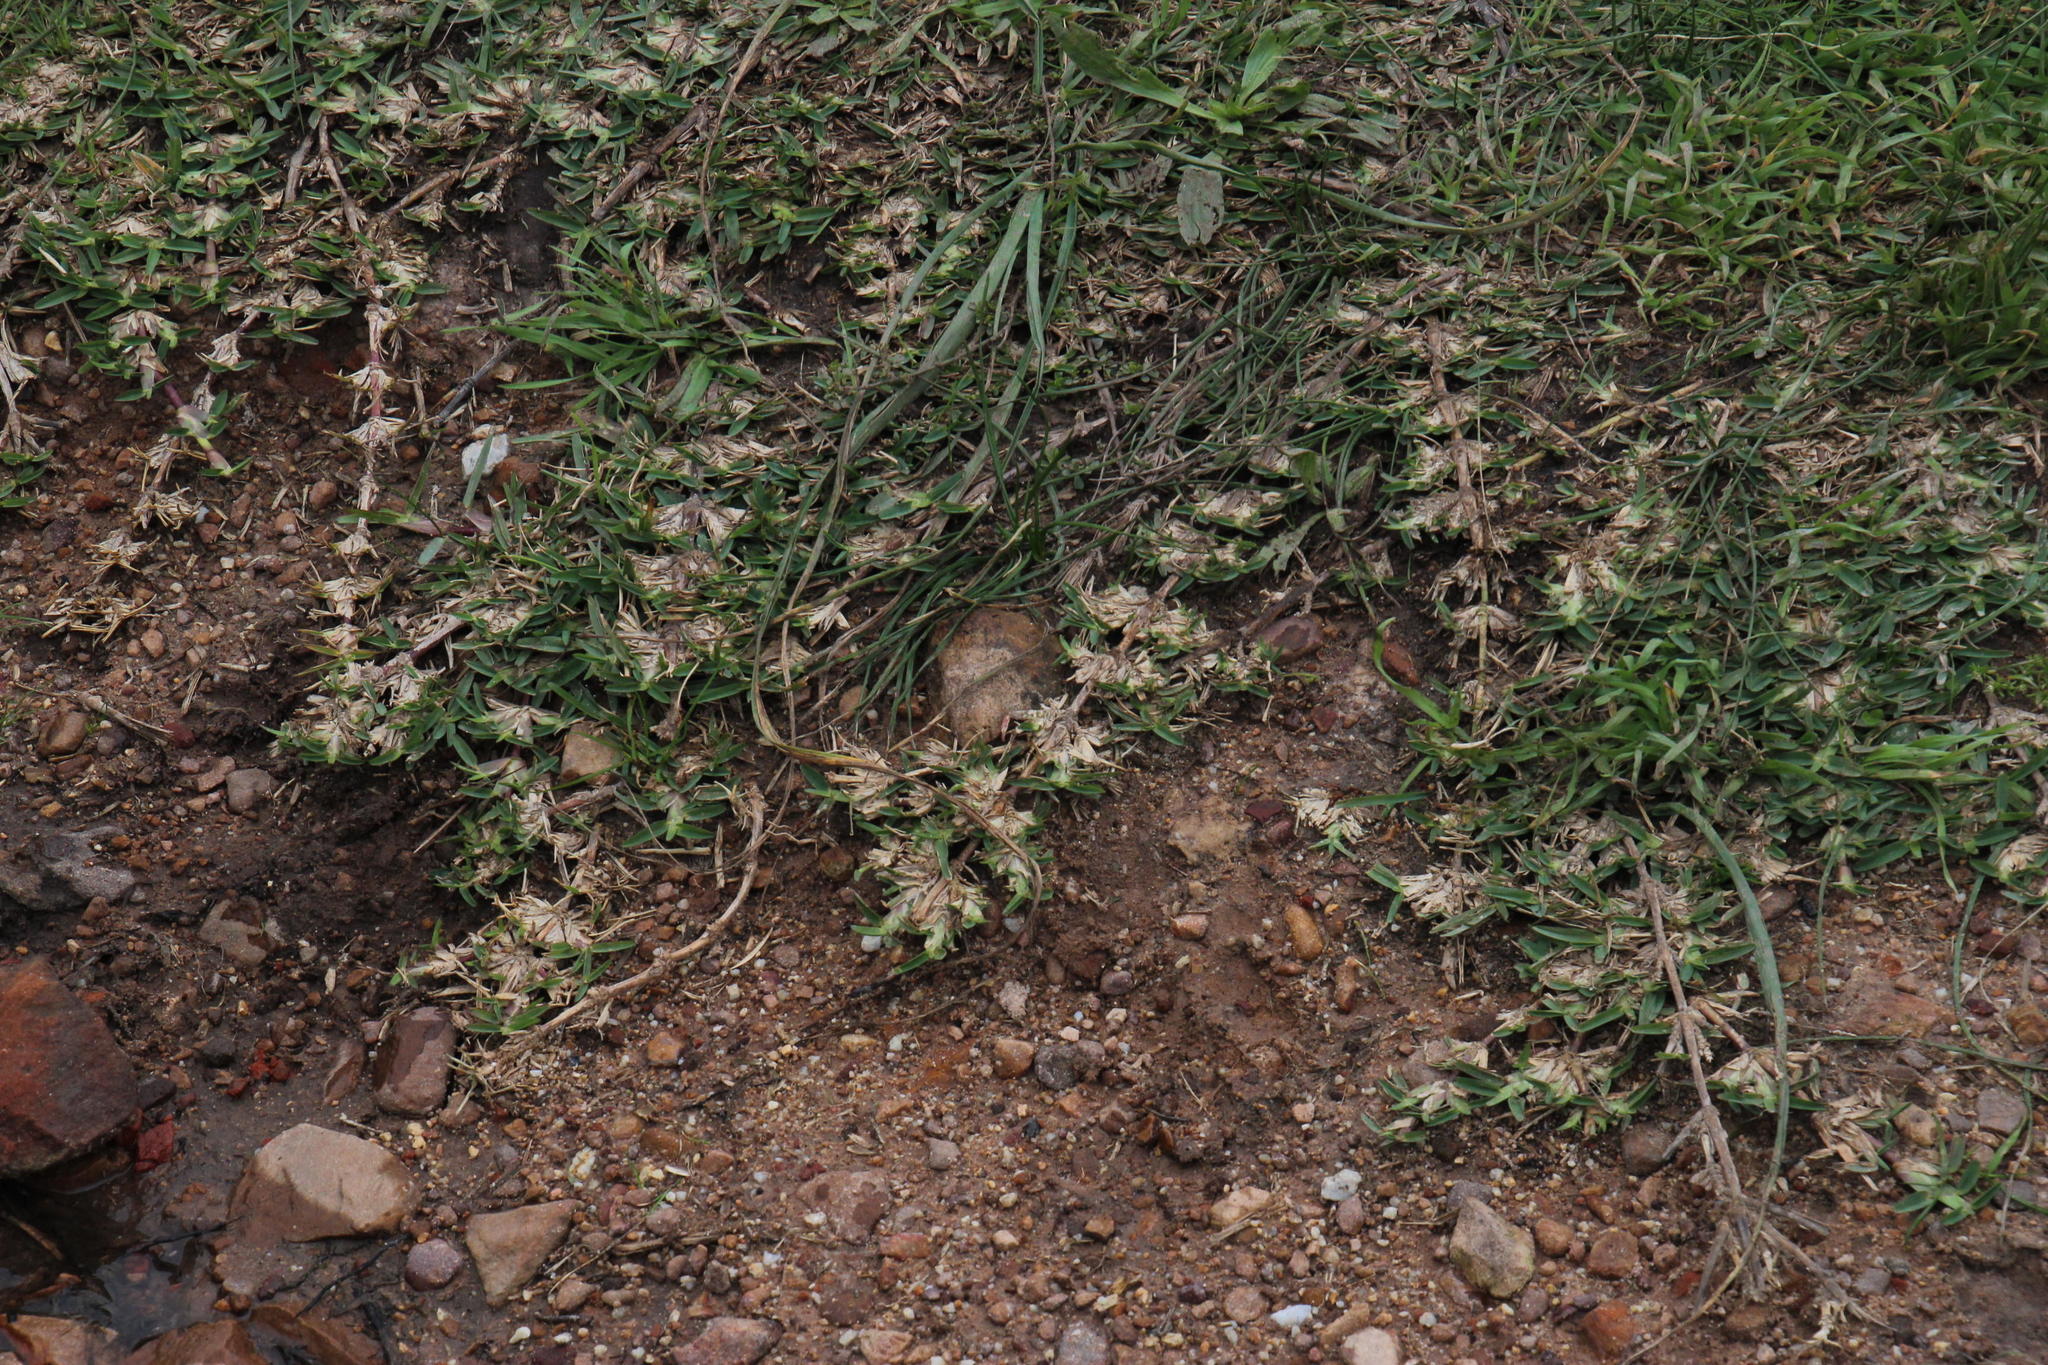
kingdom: Plantae
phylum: Tracheophyta
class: Liliopsida
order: Poales
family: Poaceae
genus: Stenotaphrum
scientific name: Stenotaphrum secundatum
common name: St. augustine grass
